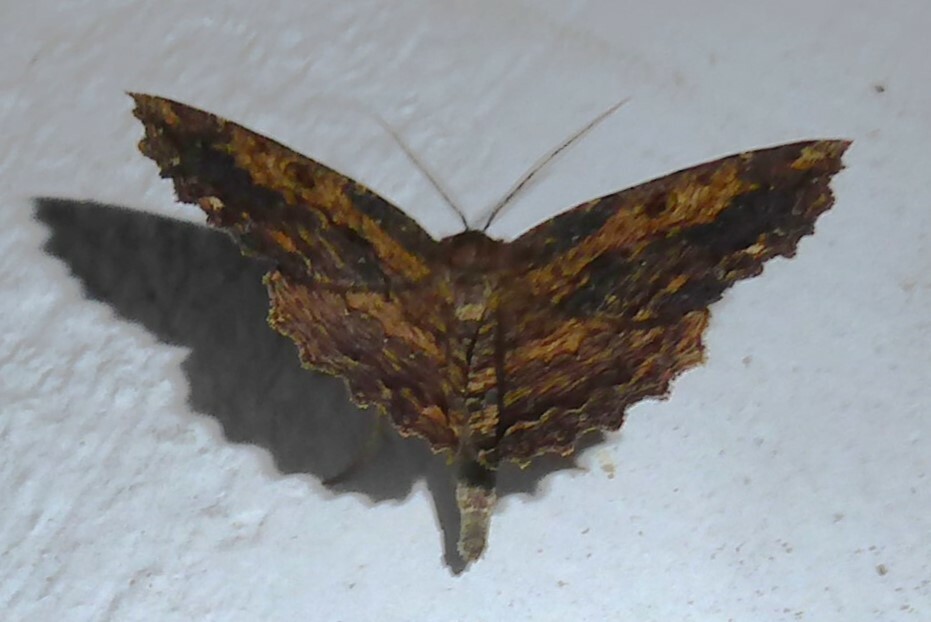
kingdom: Animalia
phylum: Arthropoda
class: Insecta
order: Lepidoptera
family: Geometridae
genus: Gellonia
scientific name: Gellonia pannularia
